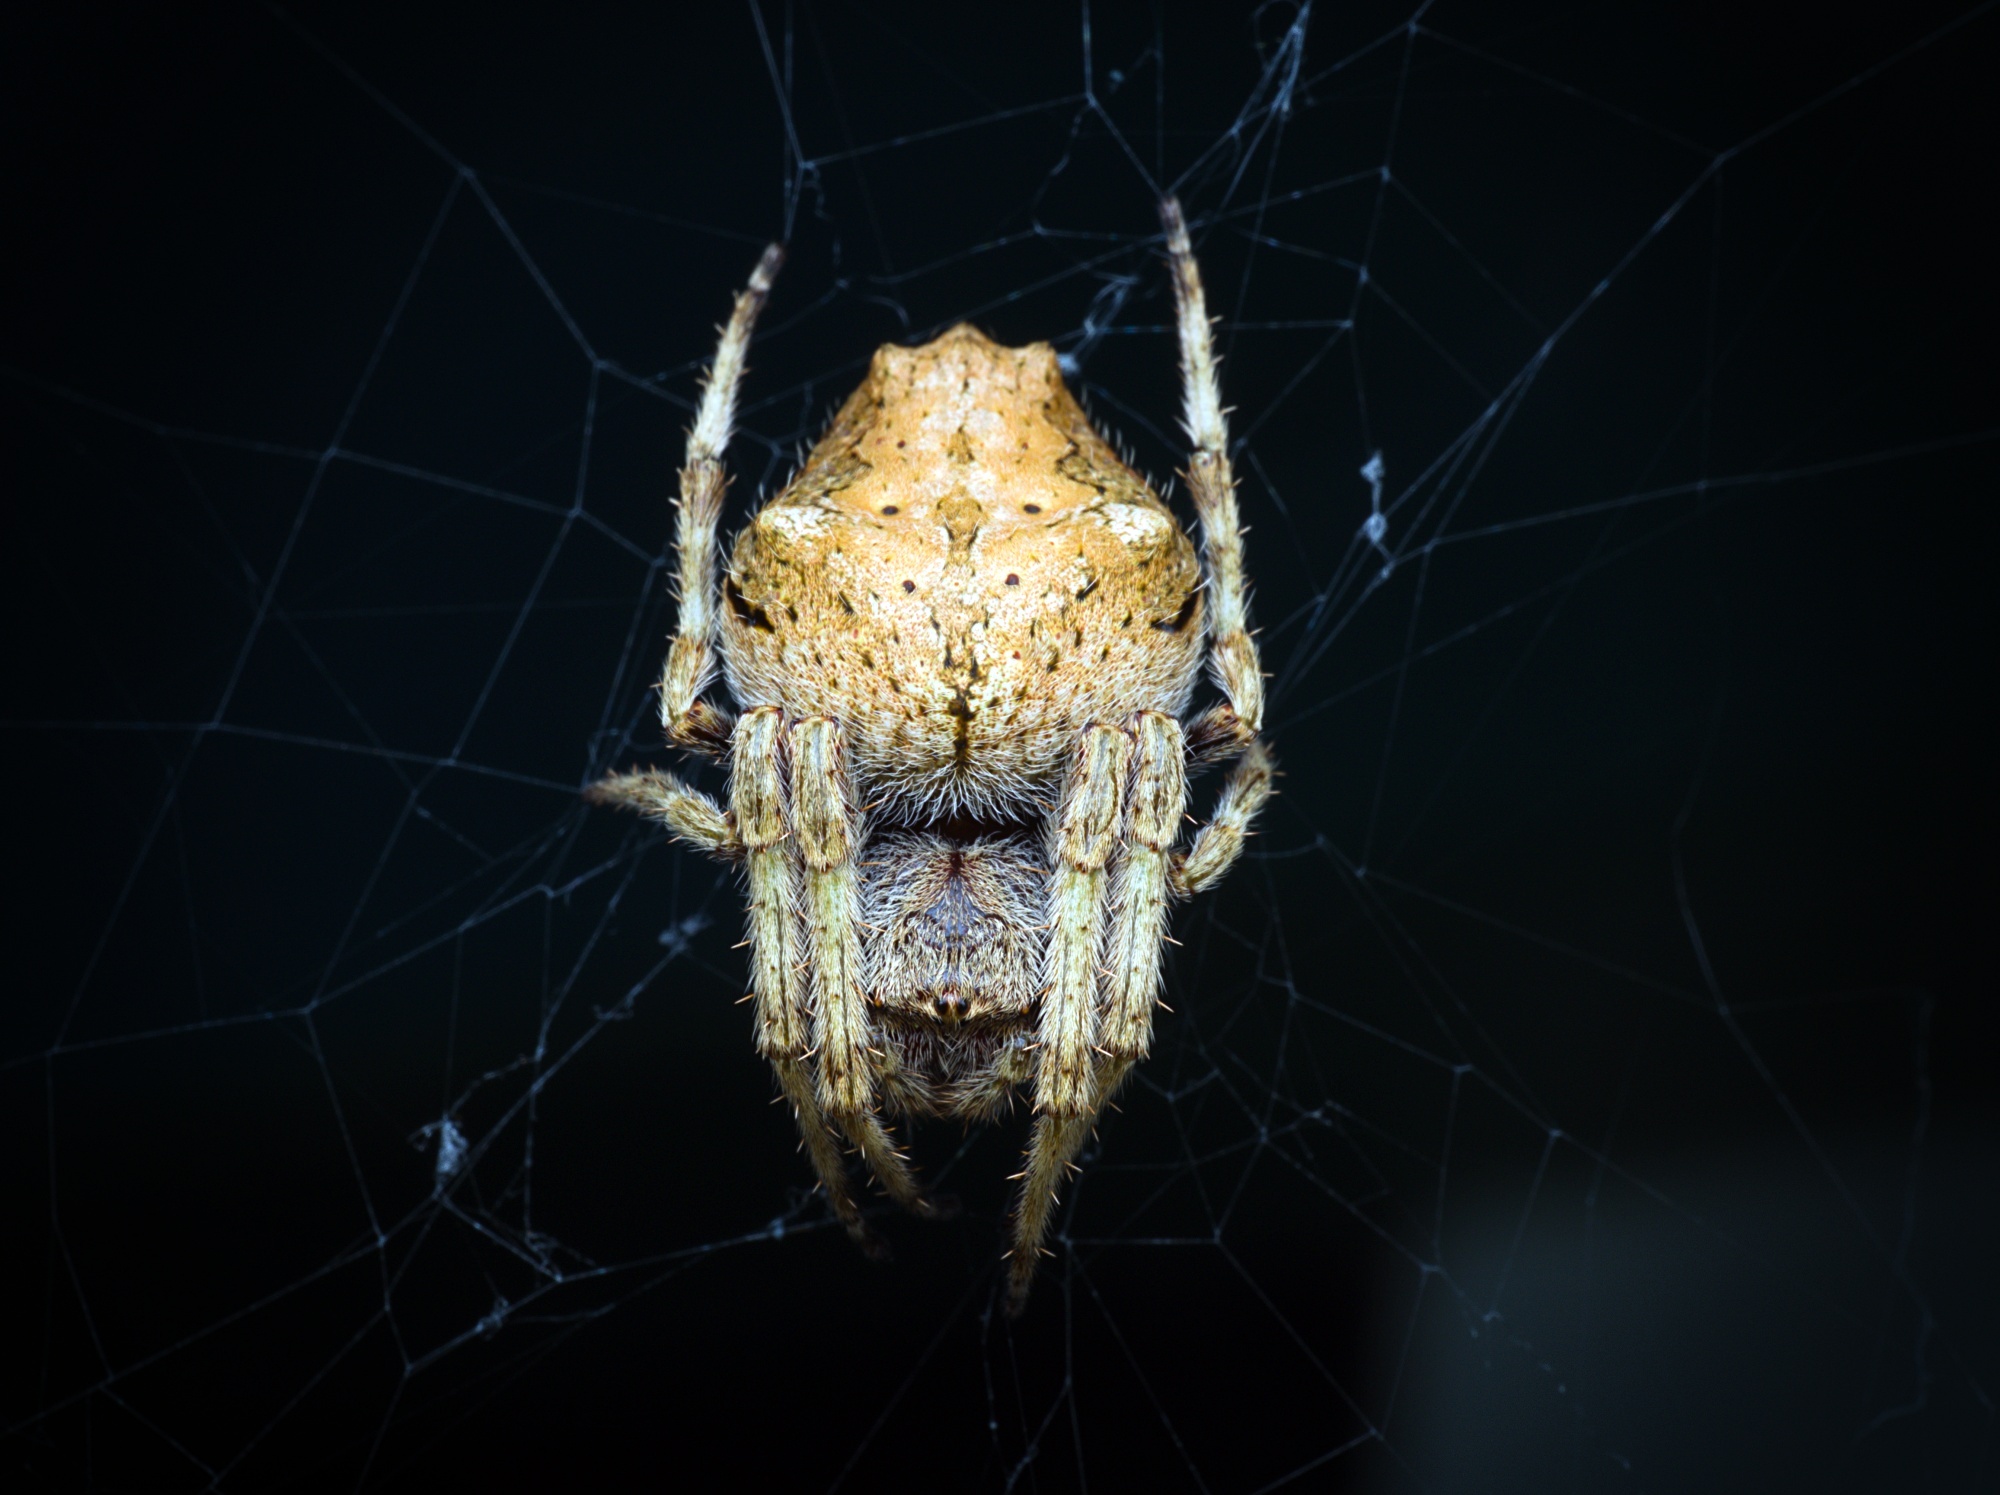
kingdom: Animalia
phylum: Arthropoda
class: Arachnida
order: Araneae
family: Araneidae
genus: Eriophora
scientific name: Eriophora pustulosa
